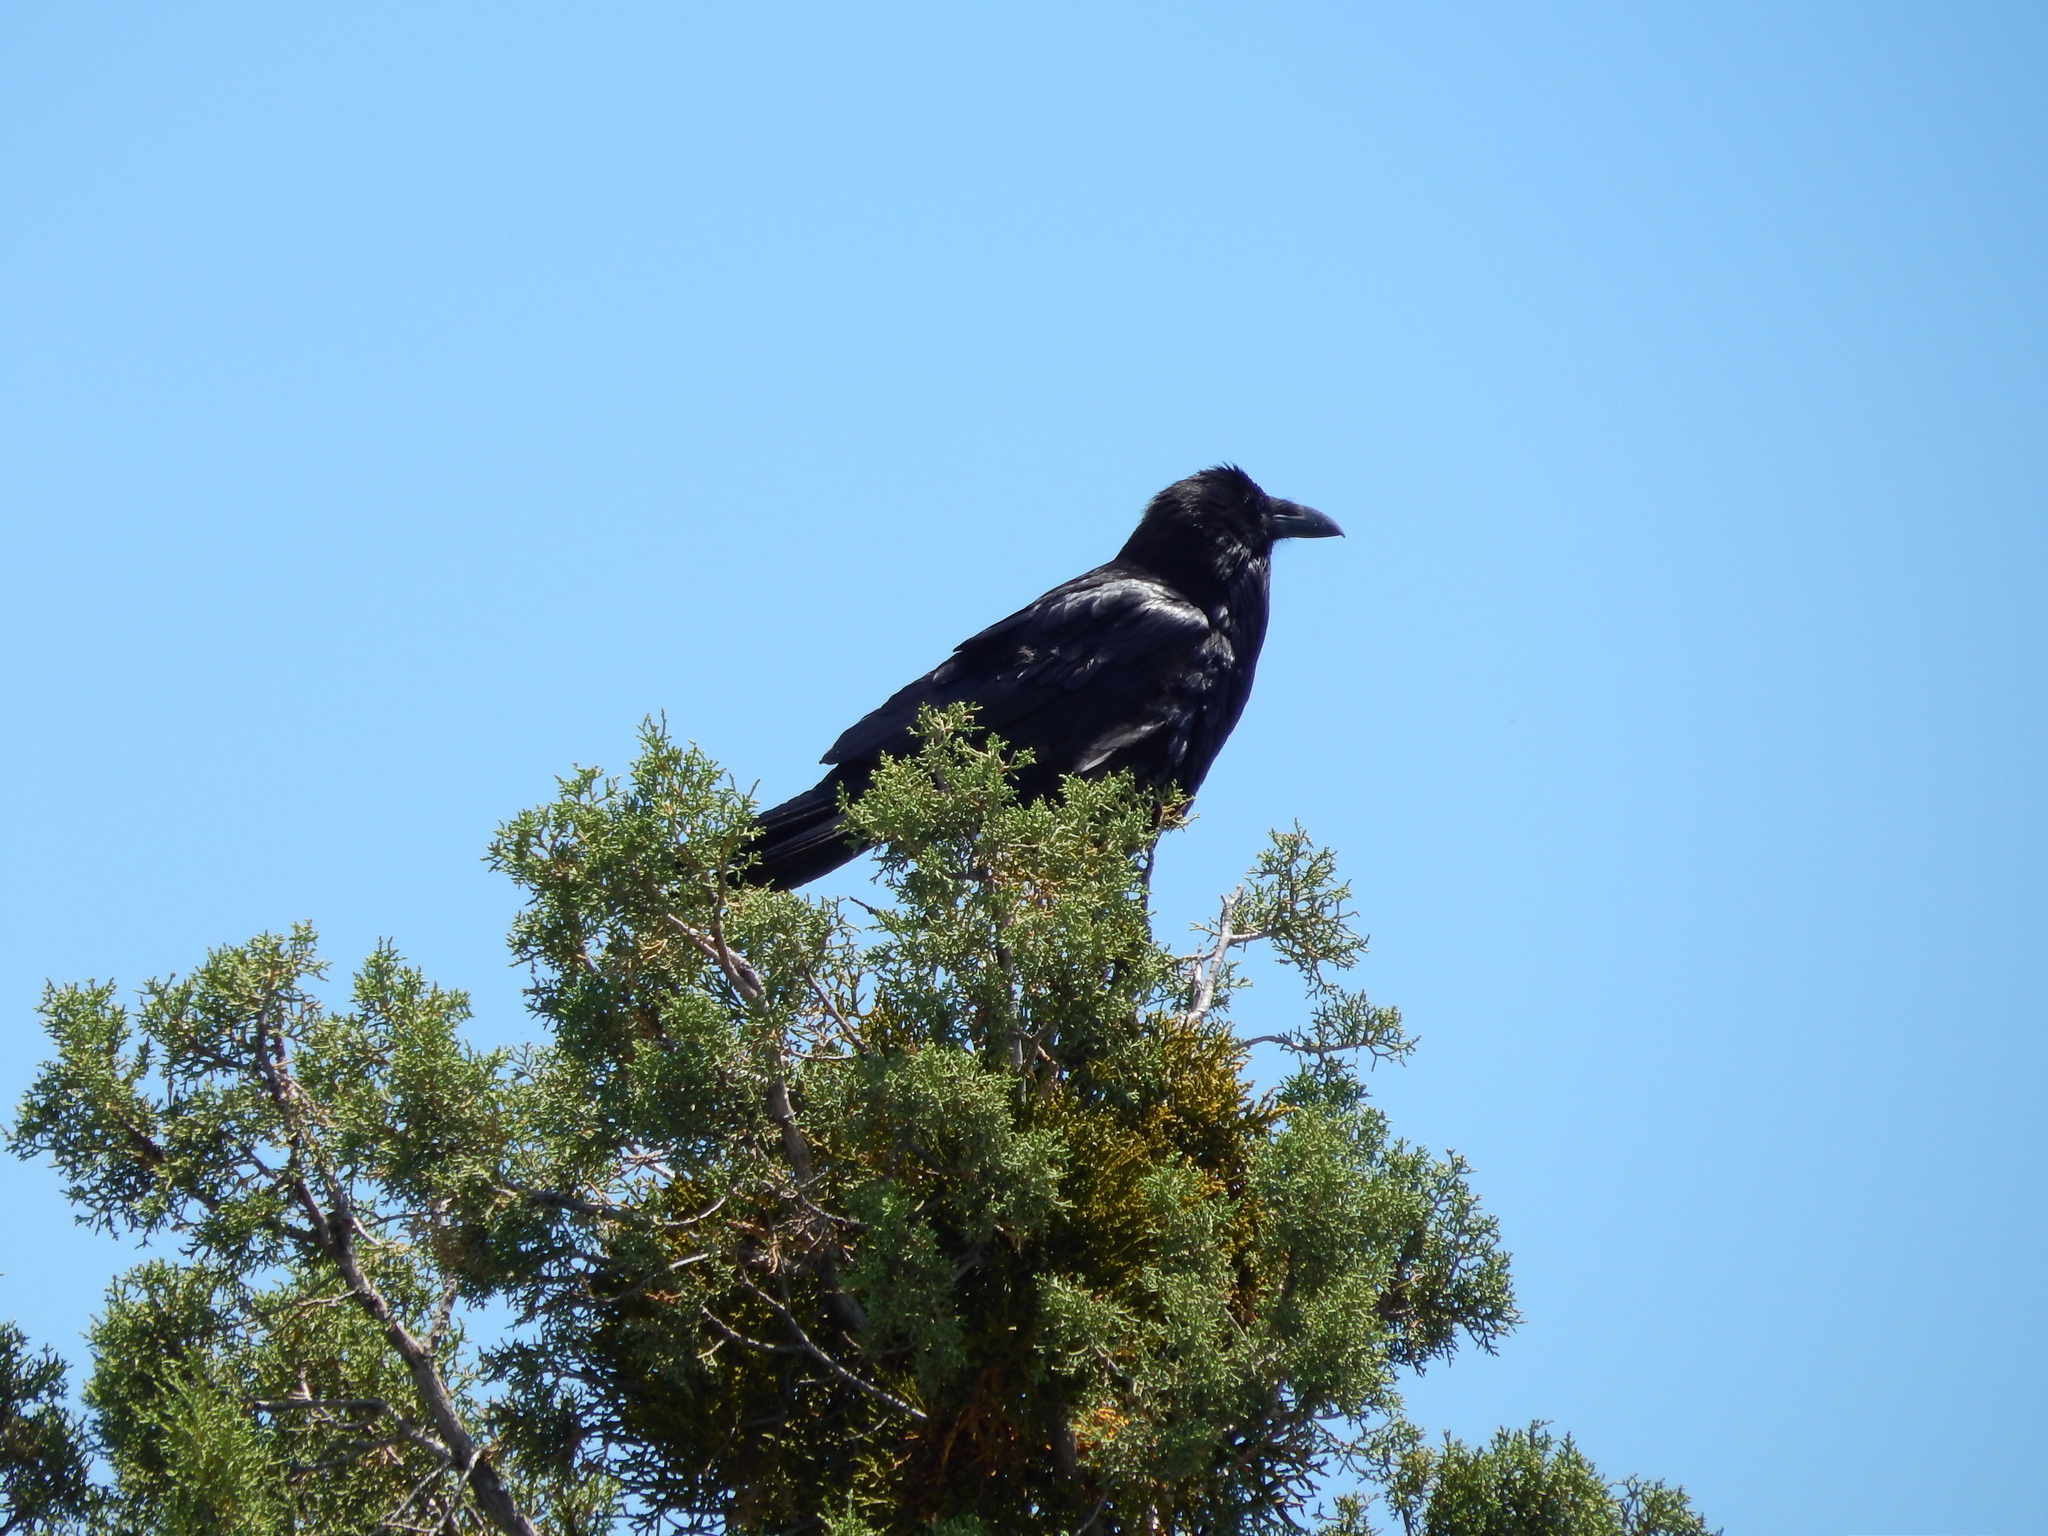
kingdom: Animalia
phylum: Chordata
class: Aves
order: Passeriformes
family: Corvidae
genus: Corvus
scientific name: Corvus corax
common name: Common raven
